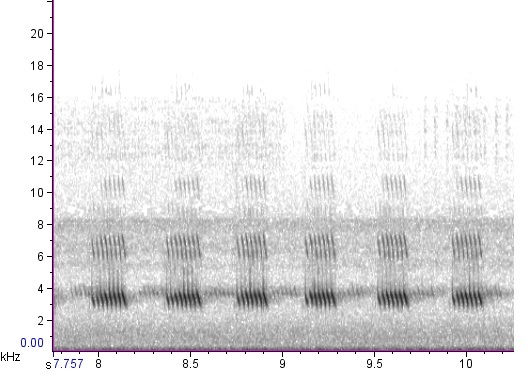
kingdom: Animalia
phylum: Arthropoda
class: Insecta
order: Orthoptera
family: Gryllidae
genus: Velarifictorus
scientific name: Velarifictorus micado
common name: Japanese burrowing cricket
